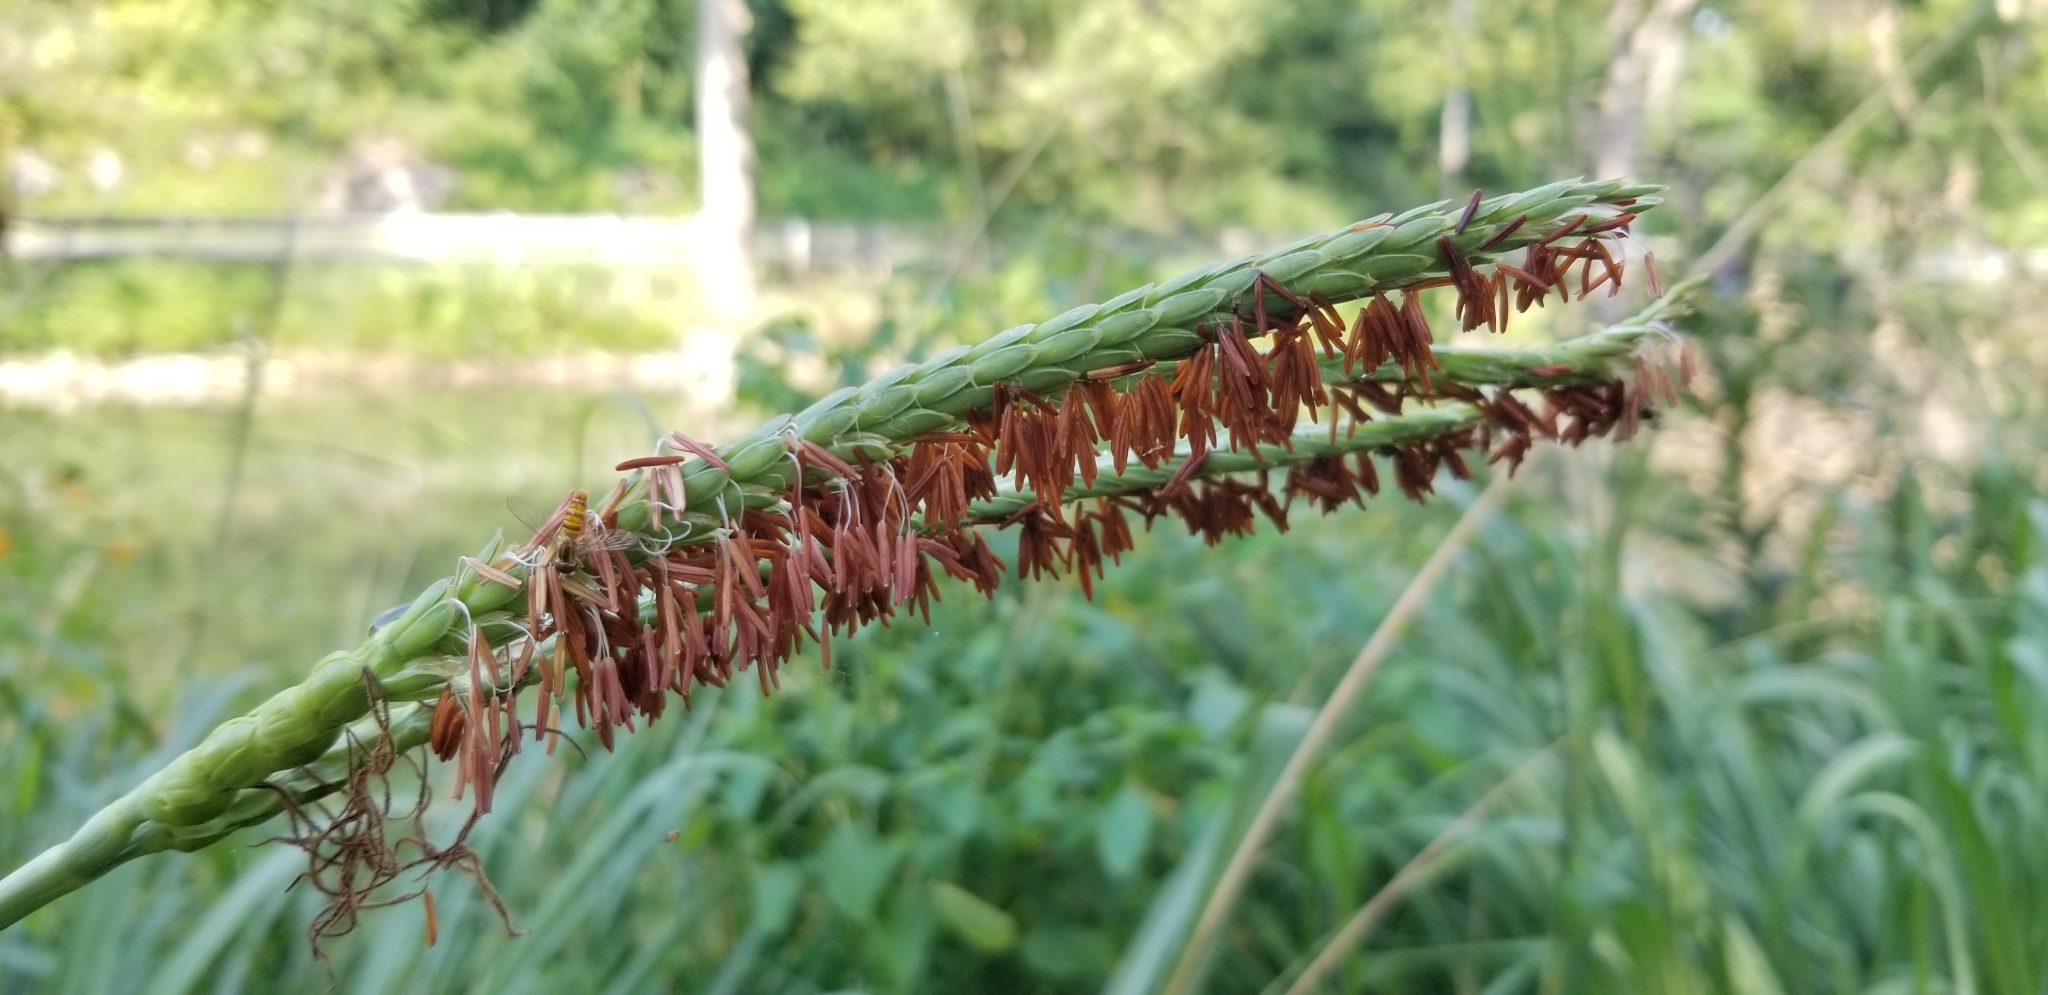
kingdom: Plantae
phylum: Tracheophyta
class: Liliopsida
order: Poales
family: Poaceae
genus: Tripsacum
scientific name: Tripsacum dactyloides
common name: Buffalo-grass
